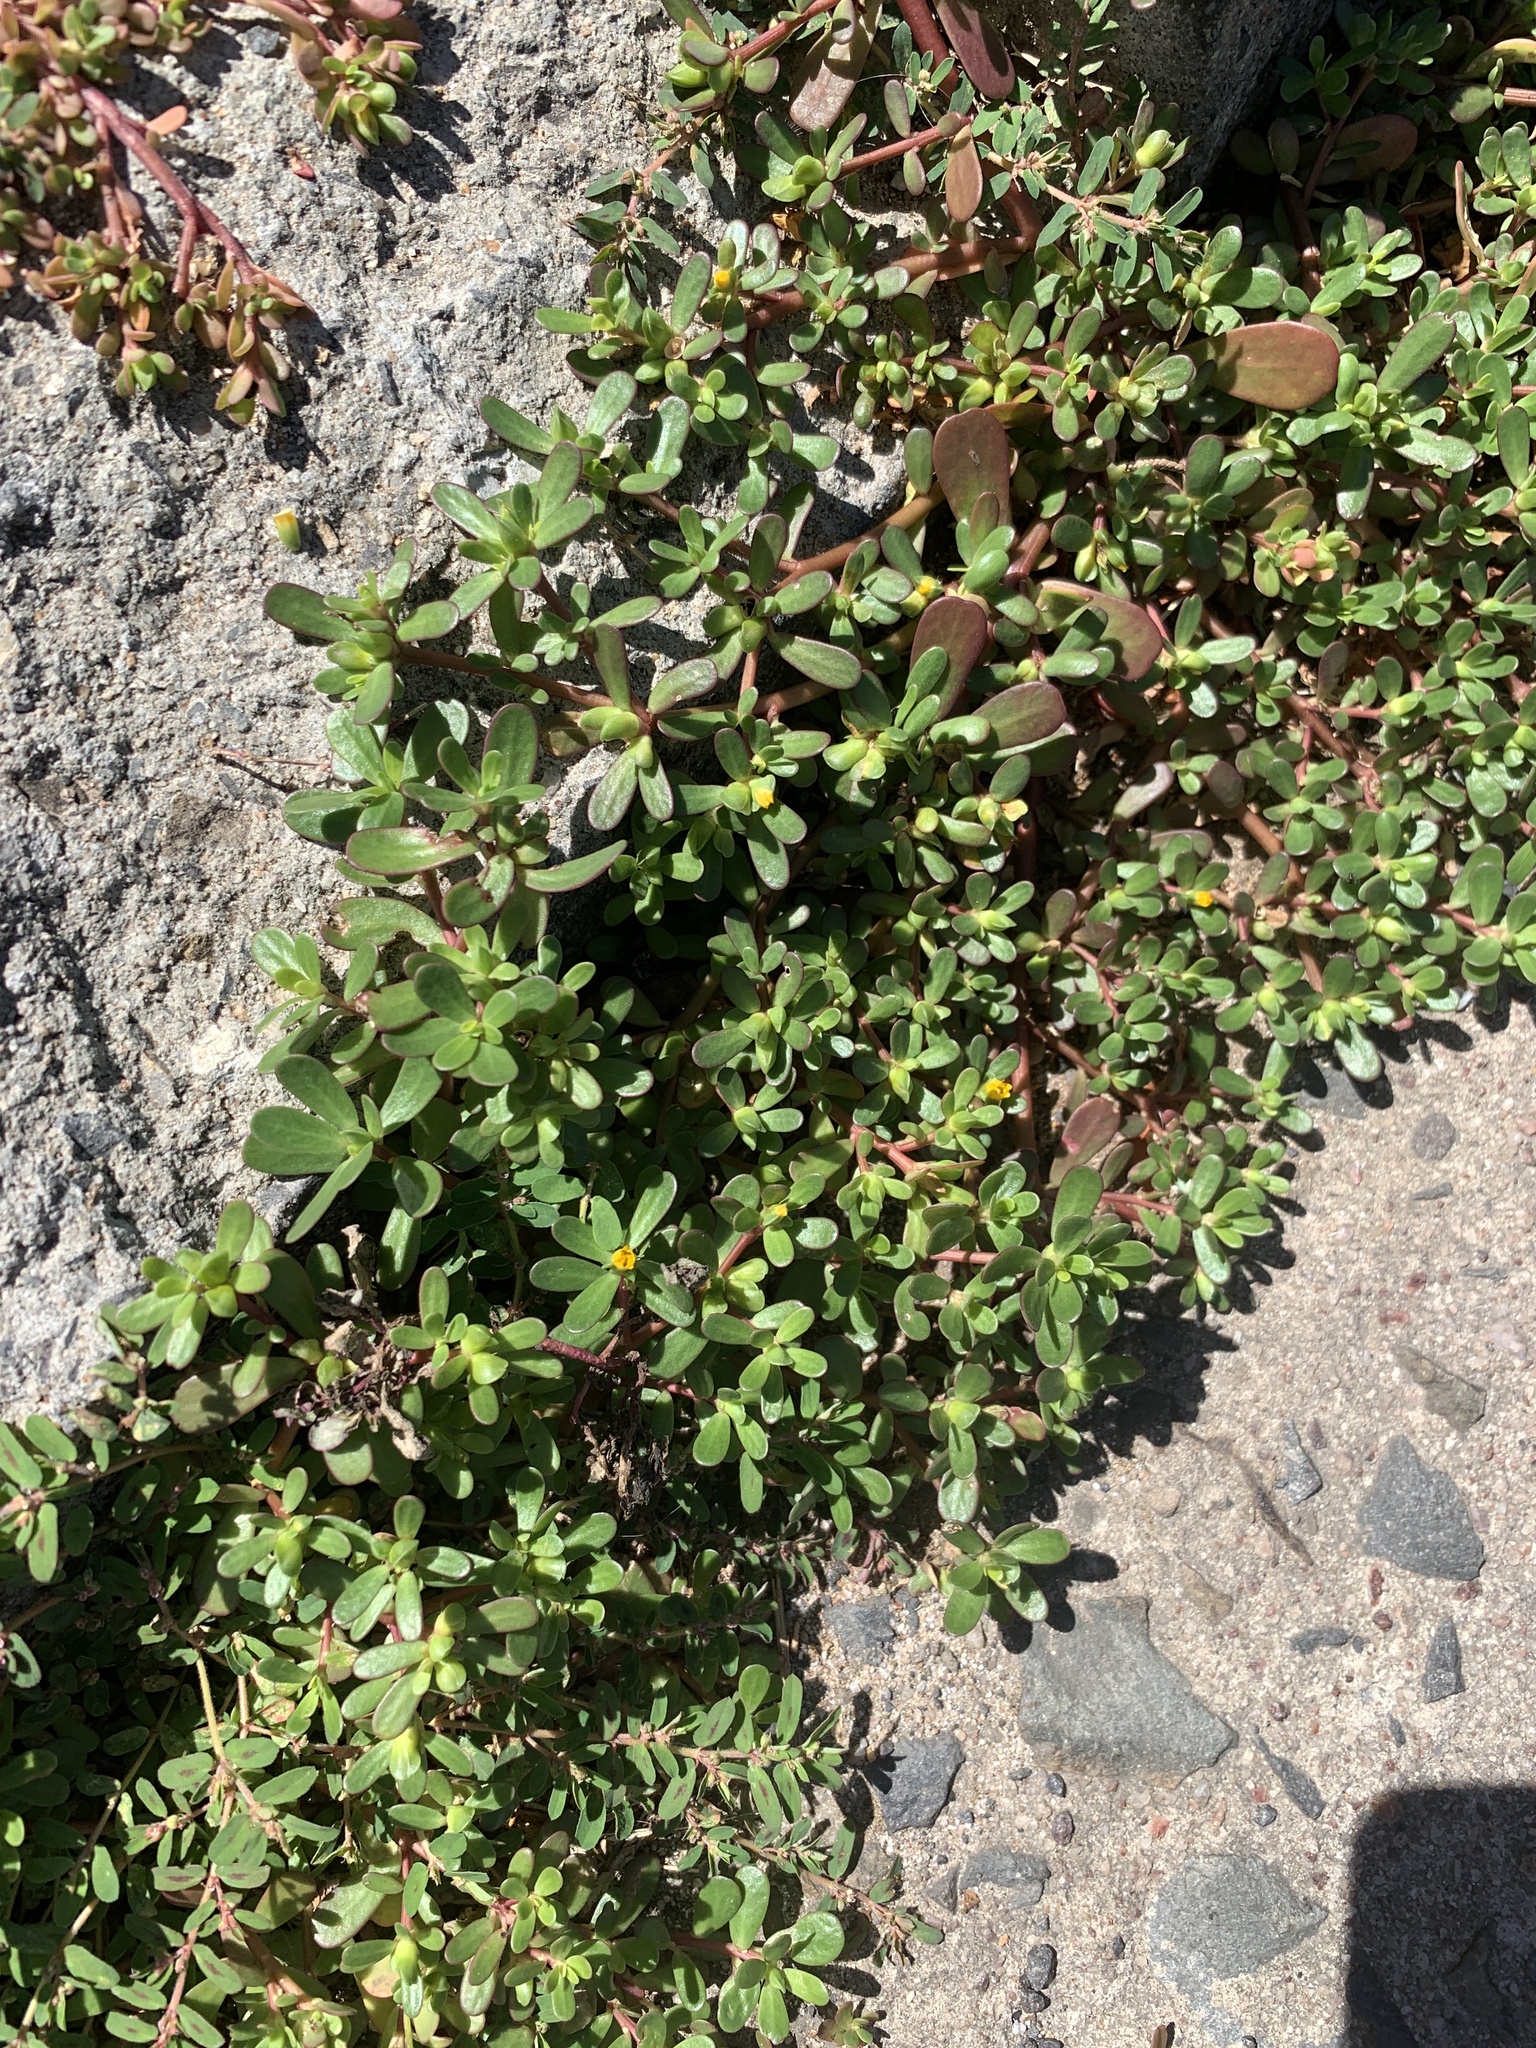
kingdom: Plantae
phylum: Tracheophyta
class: Magnoliopsida
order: Caryophyllales
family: Portulacaceae
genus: Portulaca
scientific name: Portulaca oleracea
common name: Common purslane
